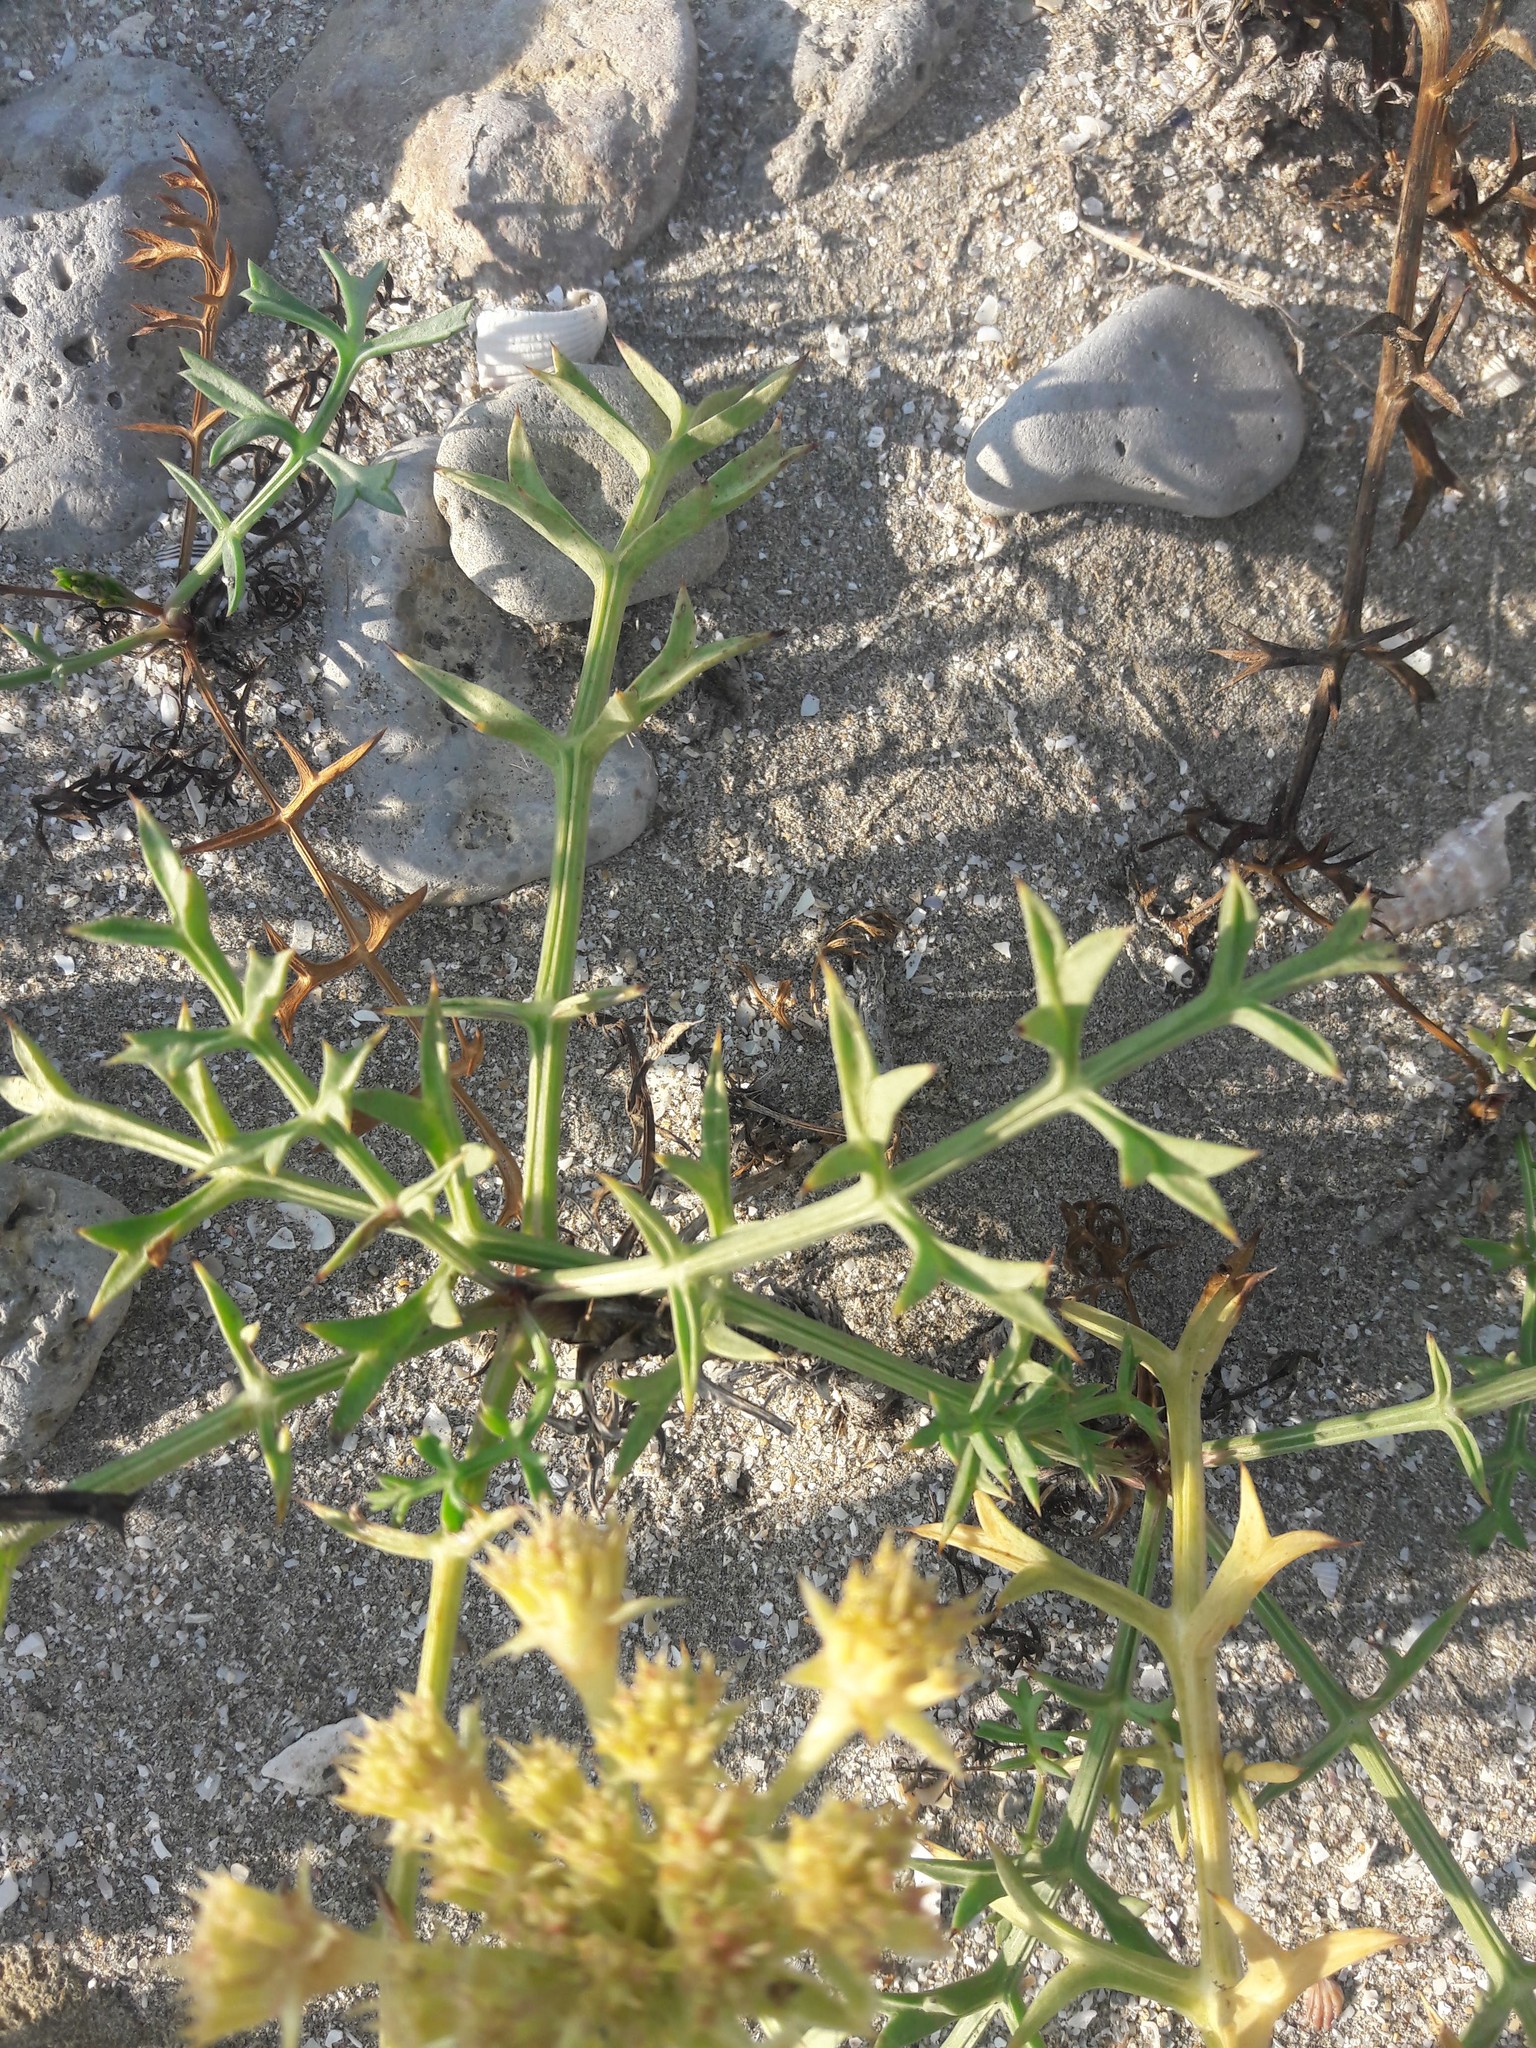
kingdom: Plantae
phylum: Tracheophyta
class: Magnoliopsida
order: Apiales
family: Apiaceae
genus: Echinophora
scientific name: Echinophora spinosa
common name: Prickly samphire
